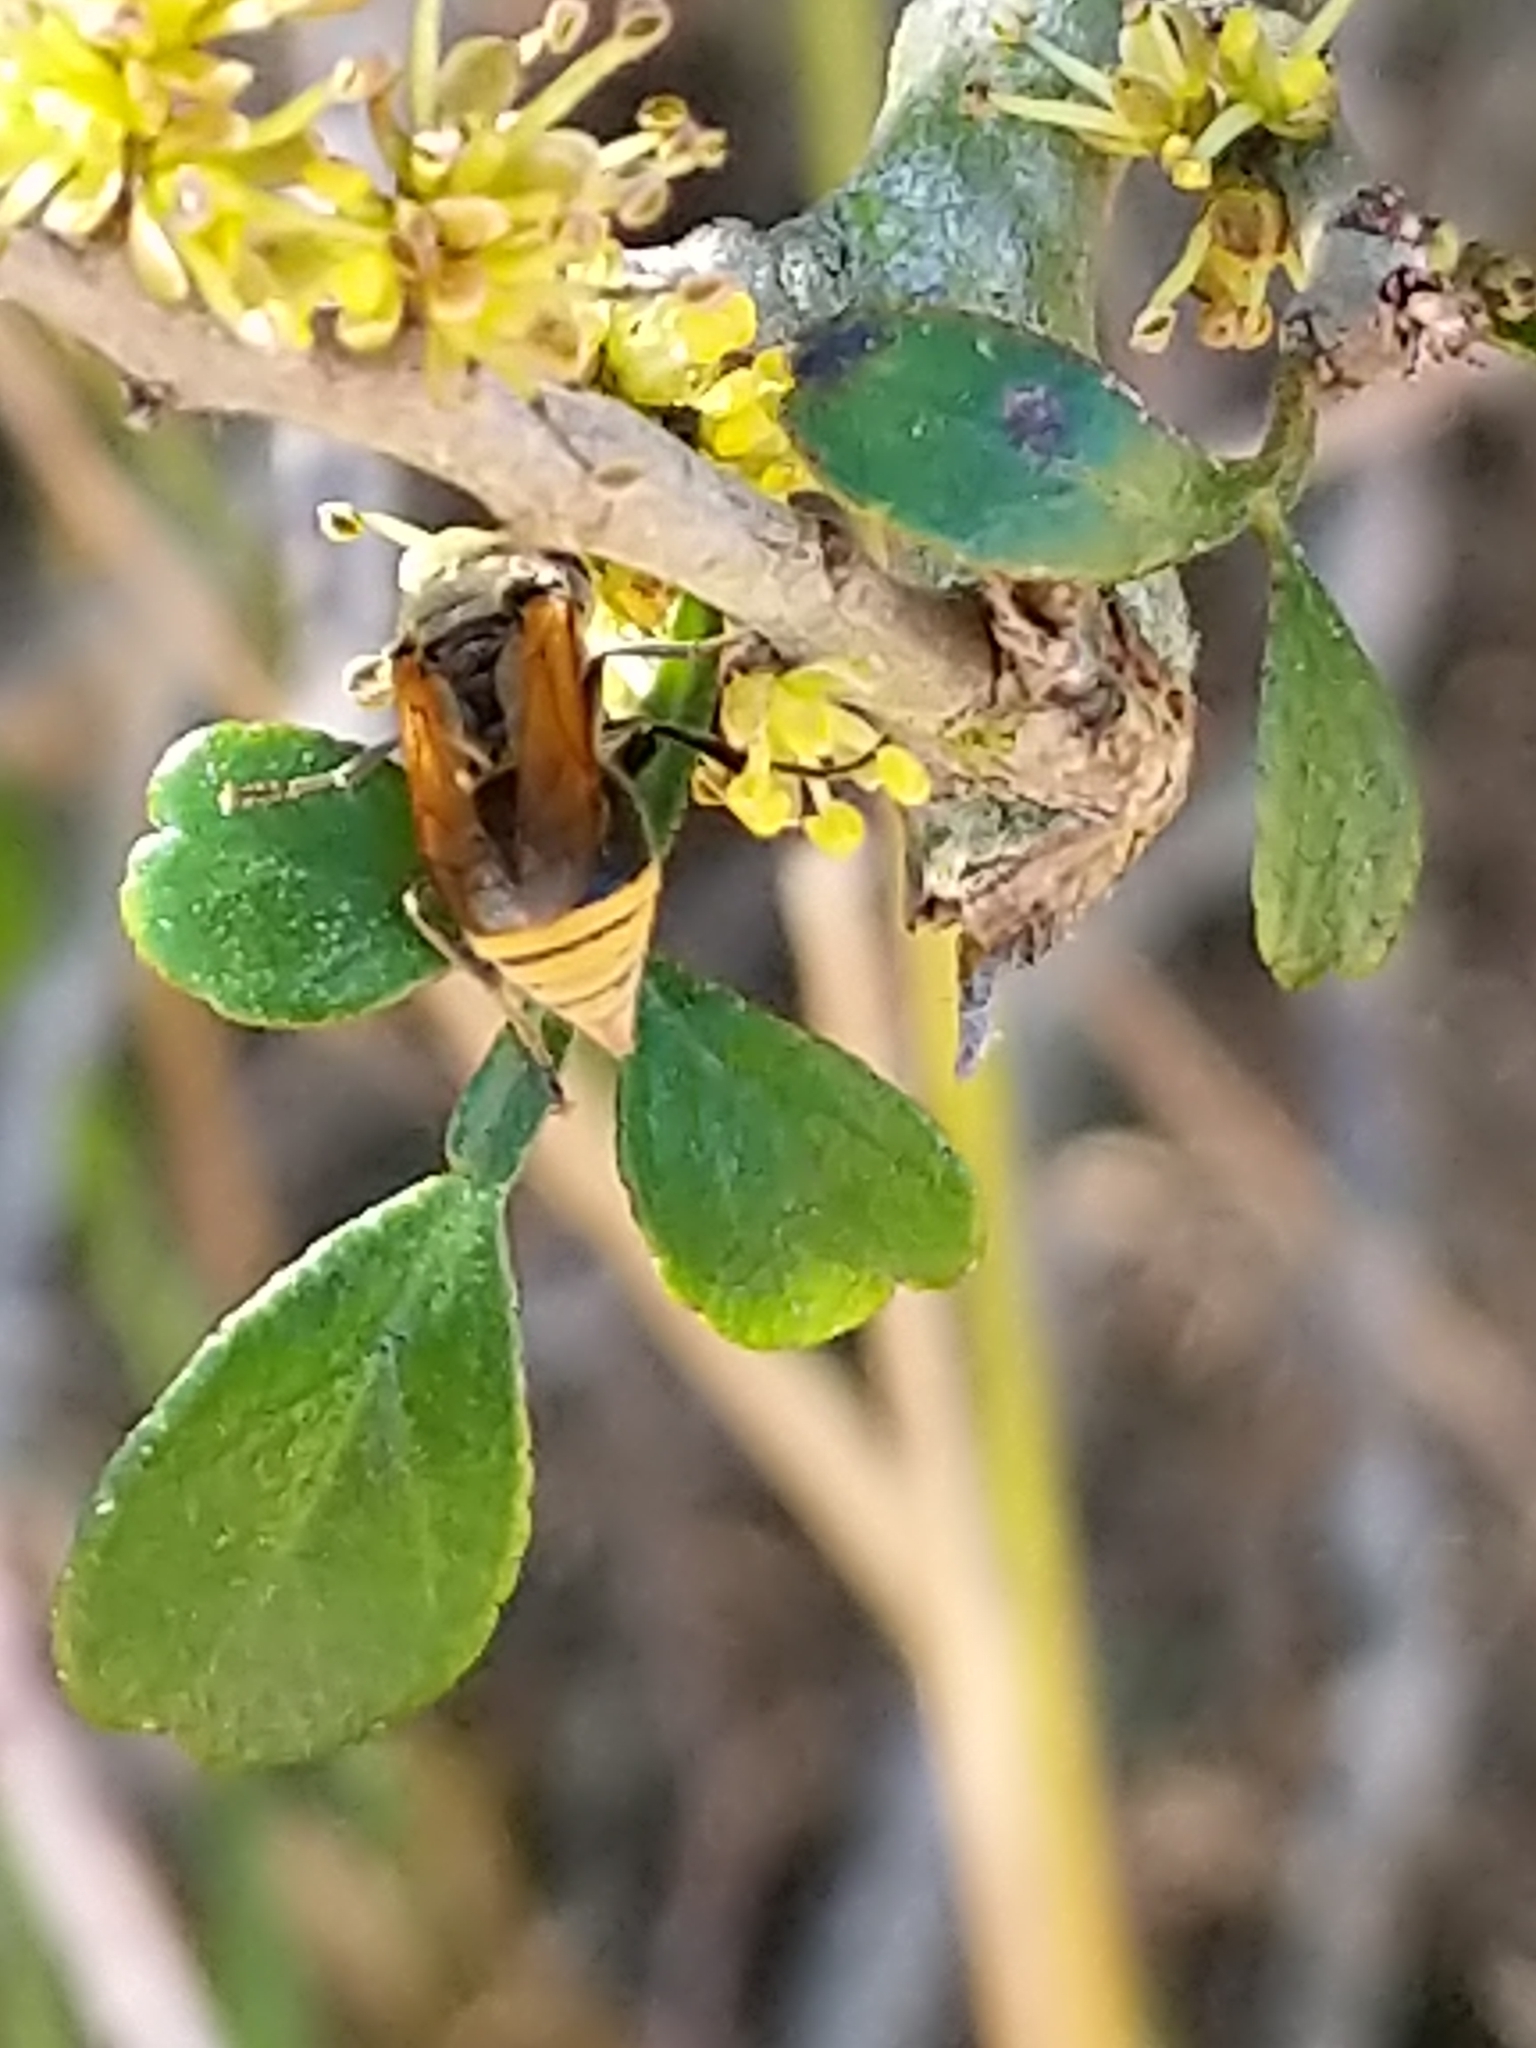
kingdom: Animalia
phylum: Arthropoda
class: Insecta
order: Hymenoptera
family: Vespidae
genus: Brachygastra
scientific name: Brachygastra mellifica
